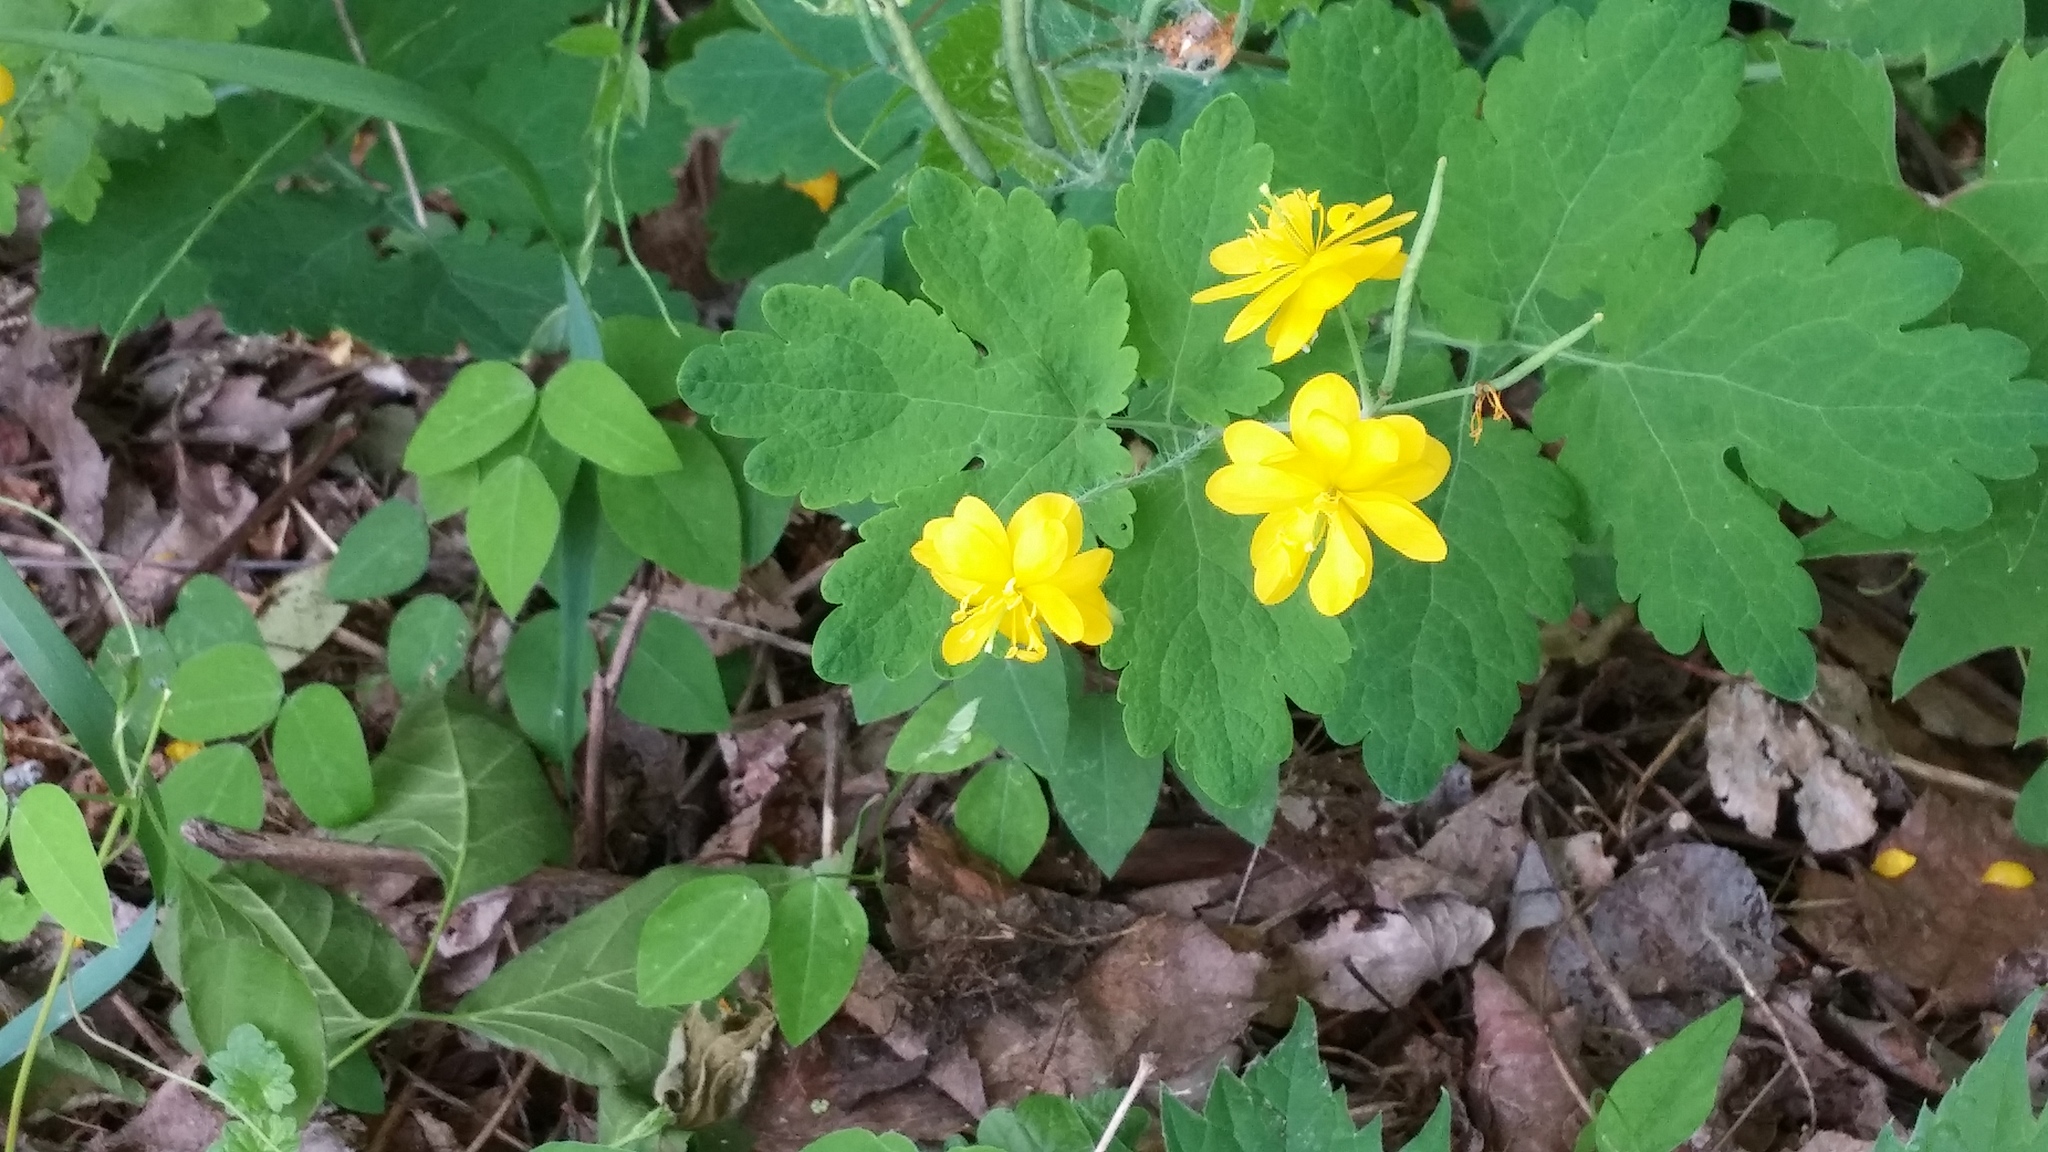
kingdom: Plantae
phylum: Tracheophyta
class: Magnoliopsida
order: Ranunculales
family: Papaveraceae
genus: Chelidonium
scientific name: Chelidonium majus
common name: Greater celandine
